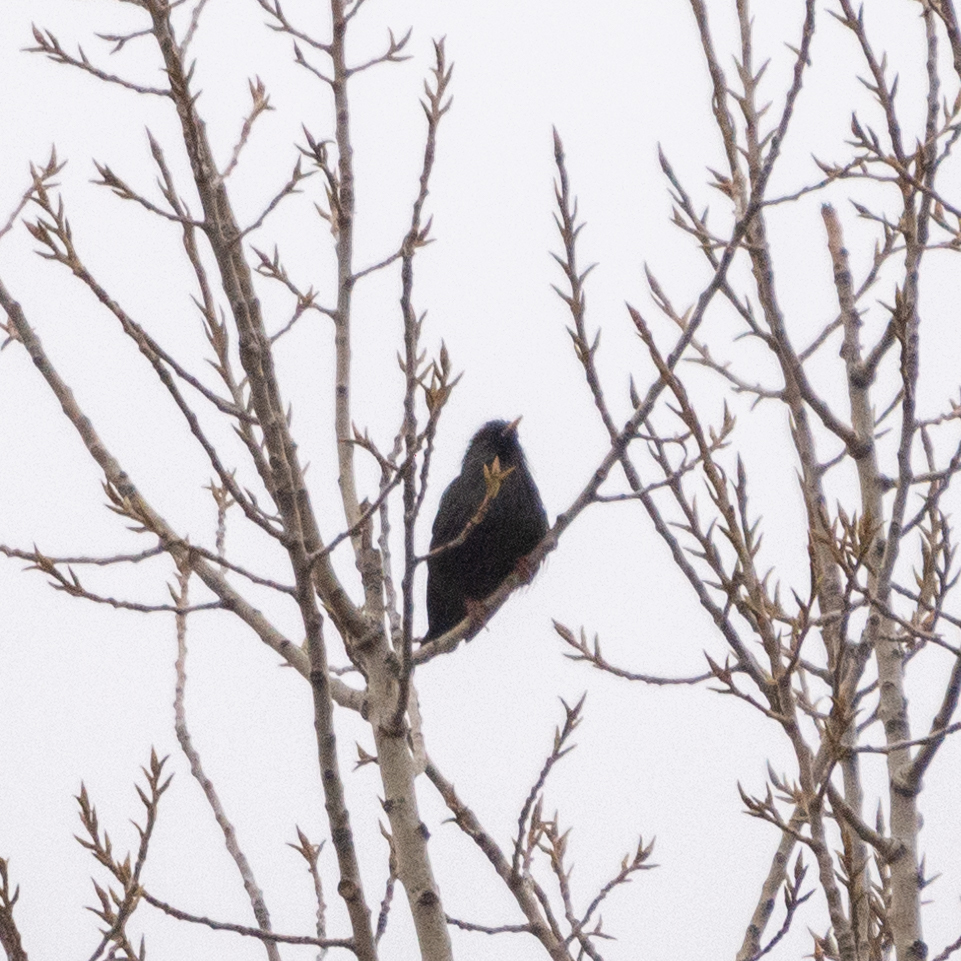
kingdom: Animalia
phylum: Chordata
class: Aves
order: Passeriformes
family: Sturnidae
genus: Sturnus
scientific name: Sturnus unicolor
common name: Spotless starling
